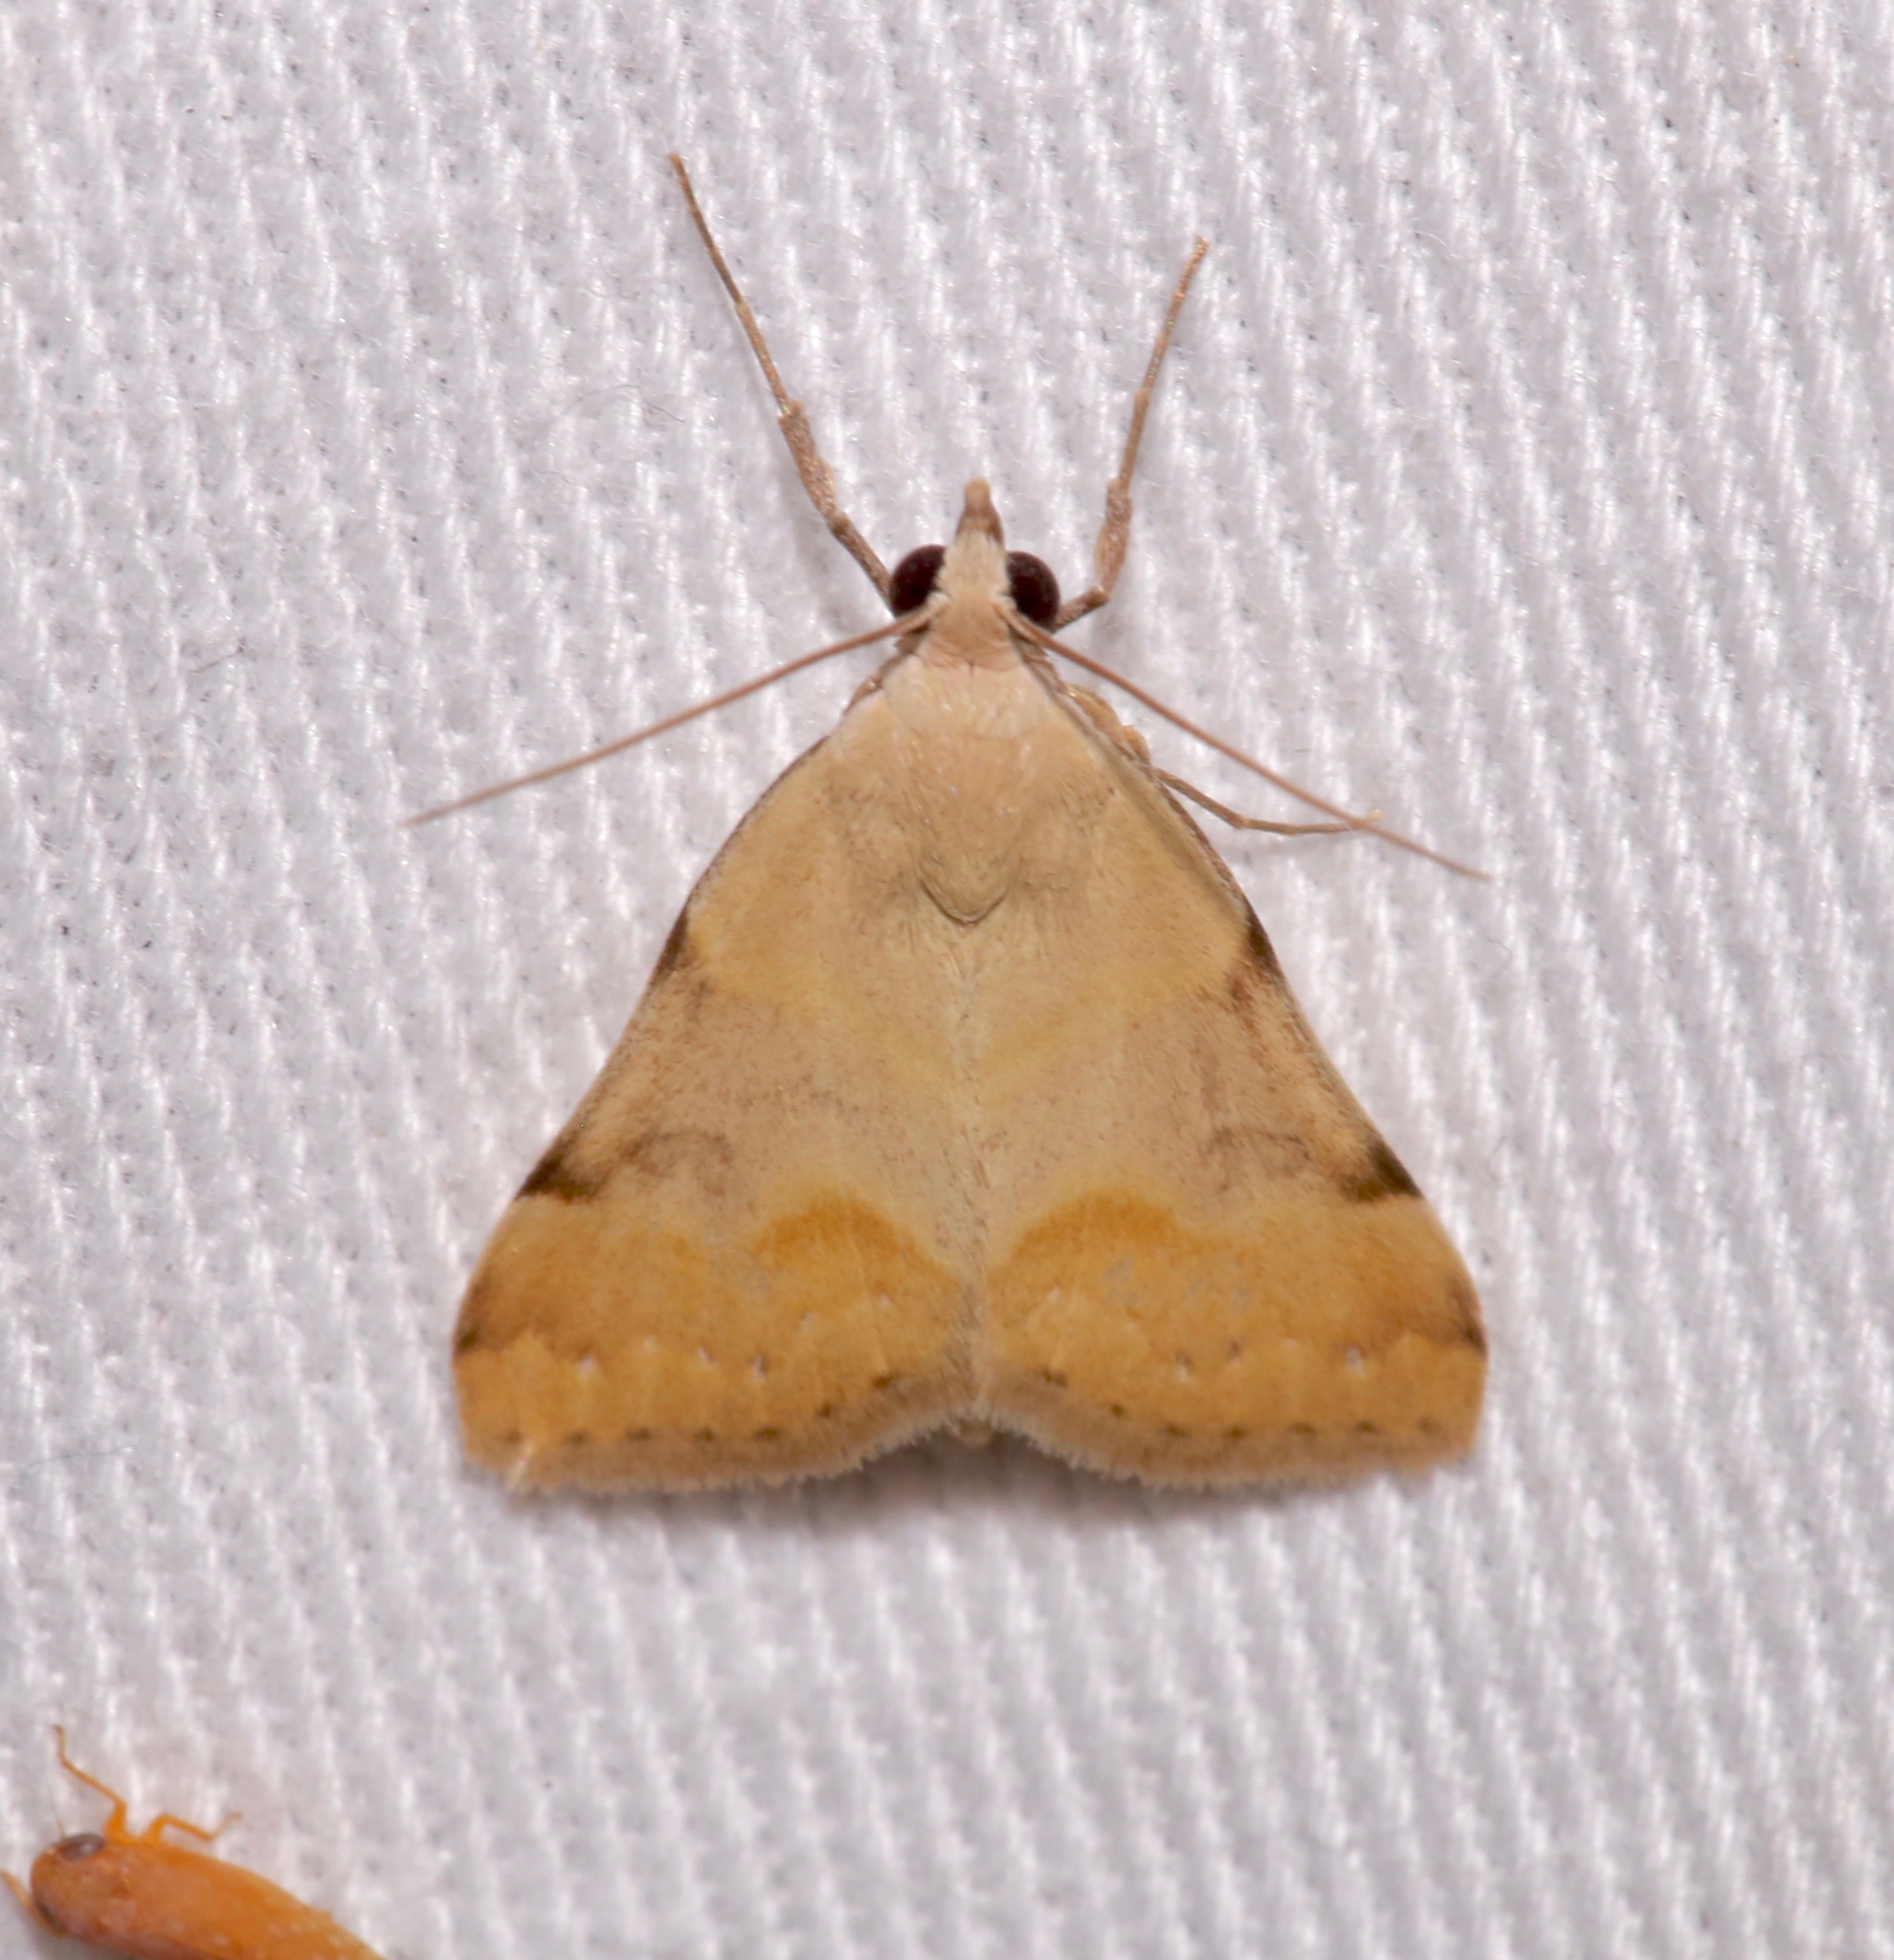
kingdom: Animalia
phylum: Arthropoda
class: Insecta
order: Lepidoptera
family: Erebidae
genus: Hemeroplanis
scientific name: Hemeroplanis incusalis
